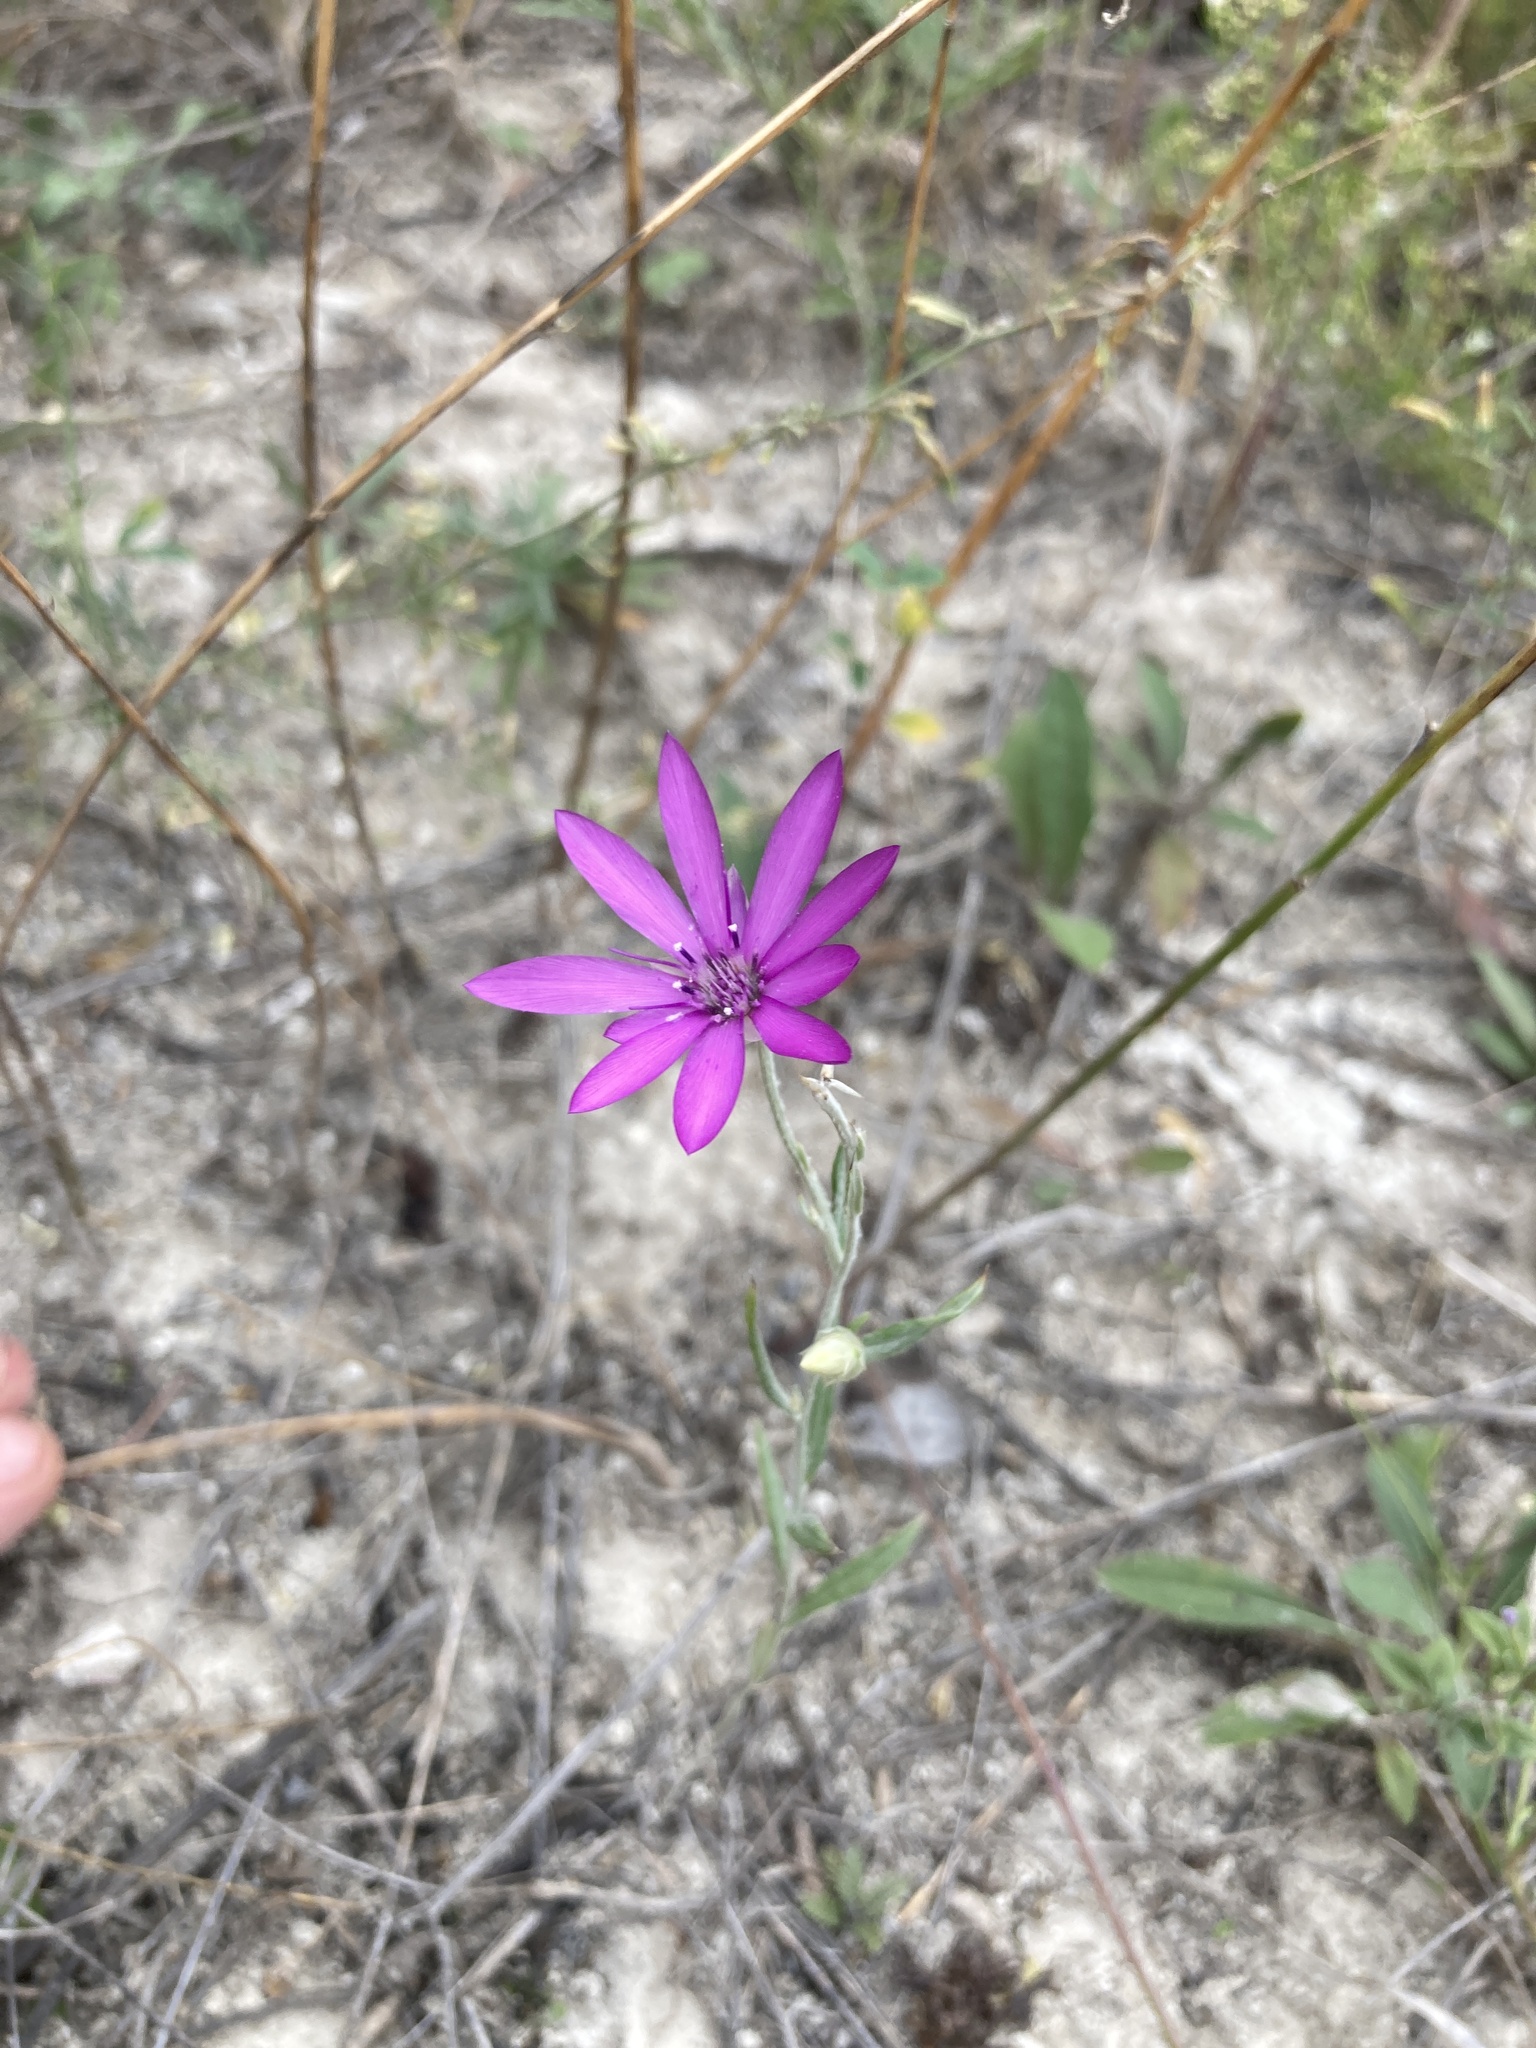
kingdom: Plantae
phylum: Tracheophyta
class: Magnoliopsida
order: Asterales
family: Asteraceae
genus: Xeranthemum
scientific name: Xeranthemum annuum
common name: Immortelle
